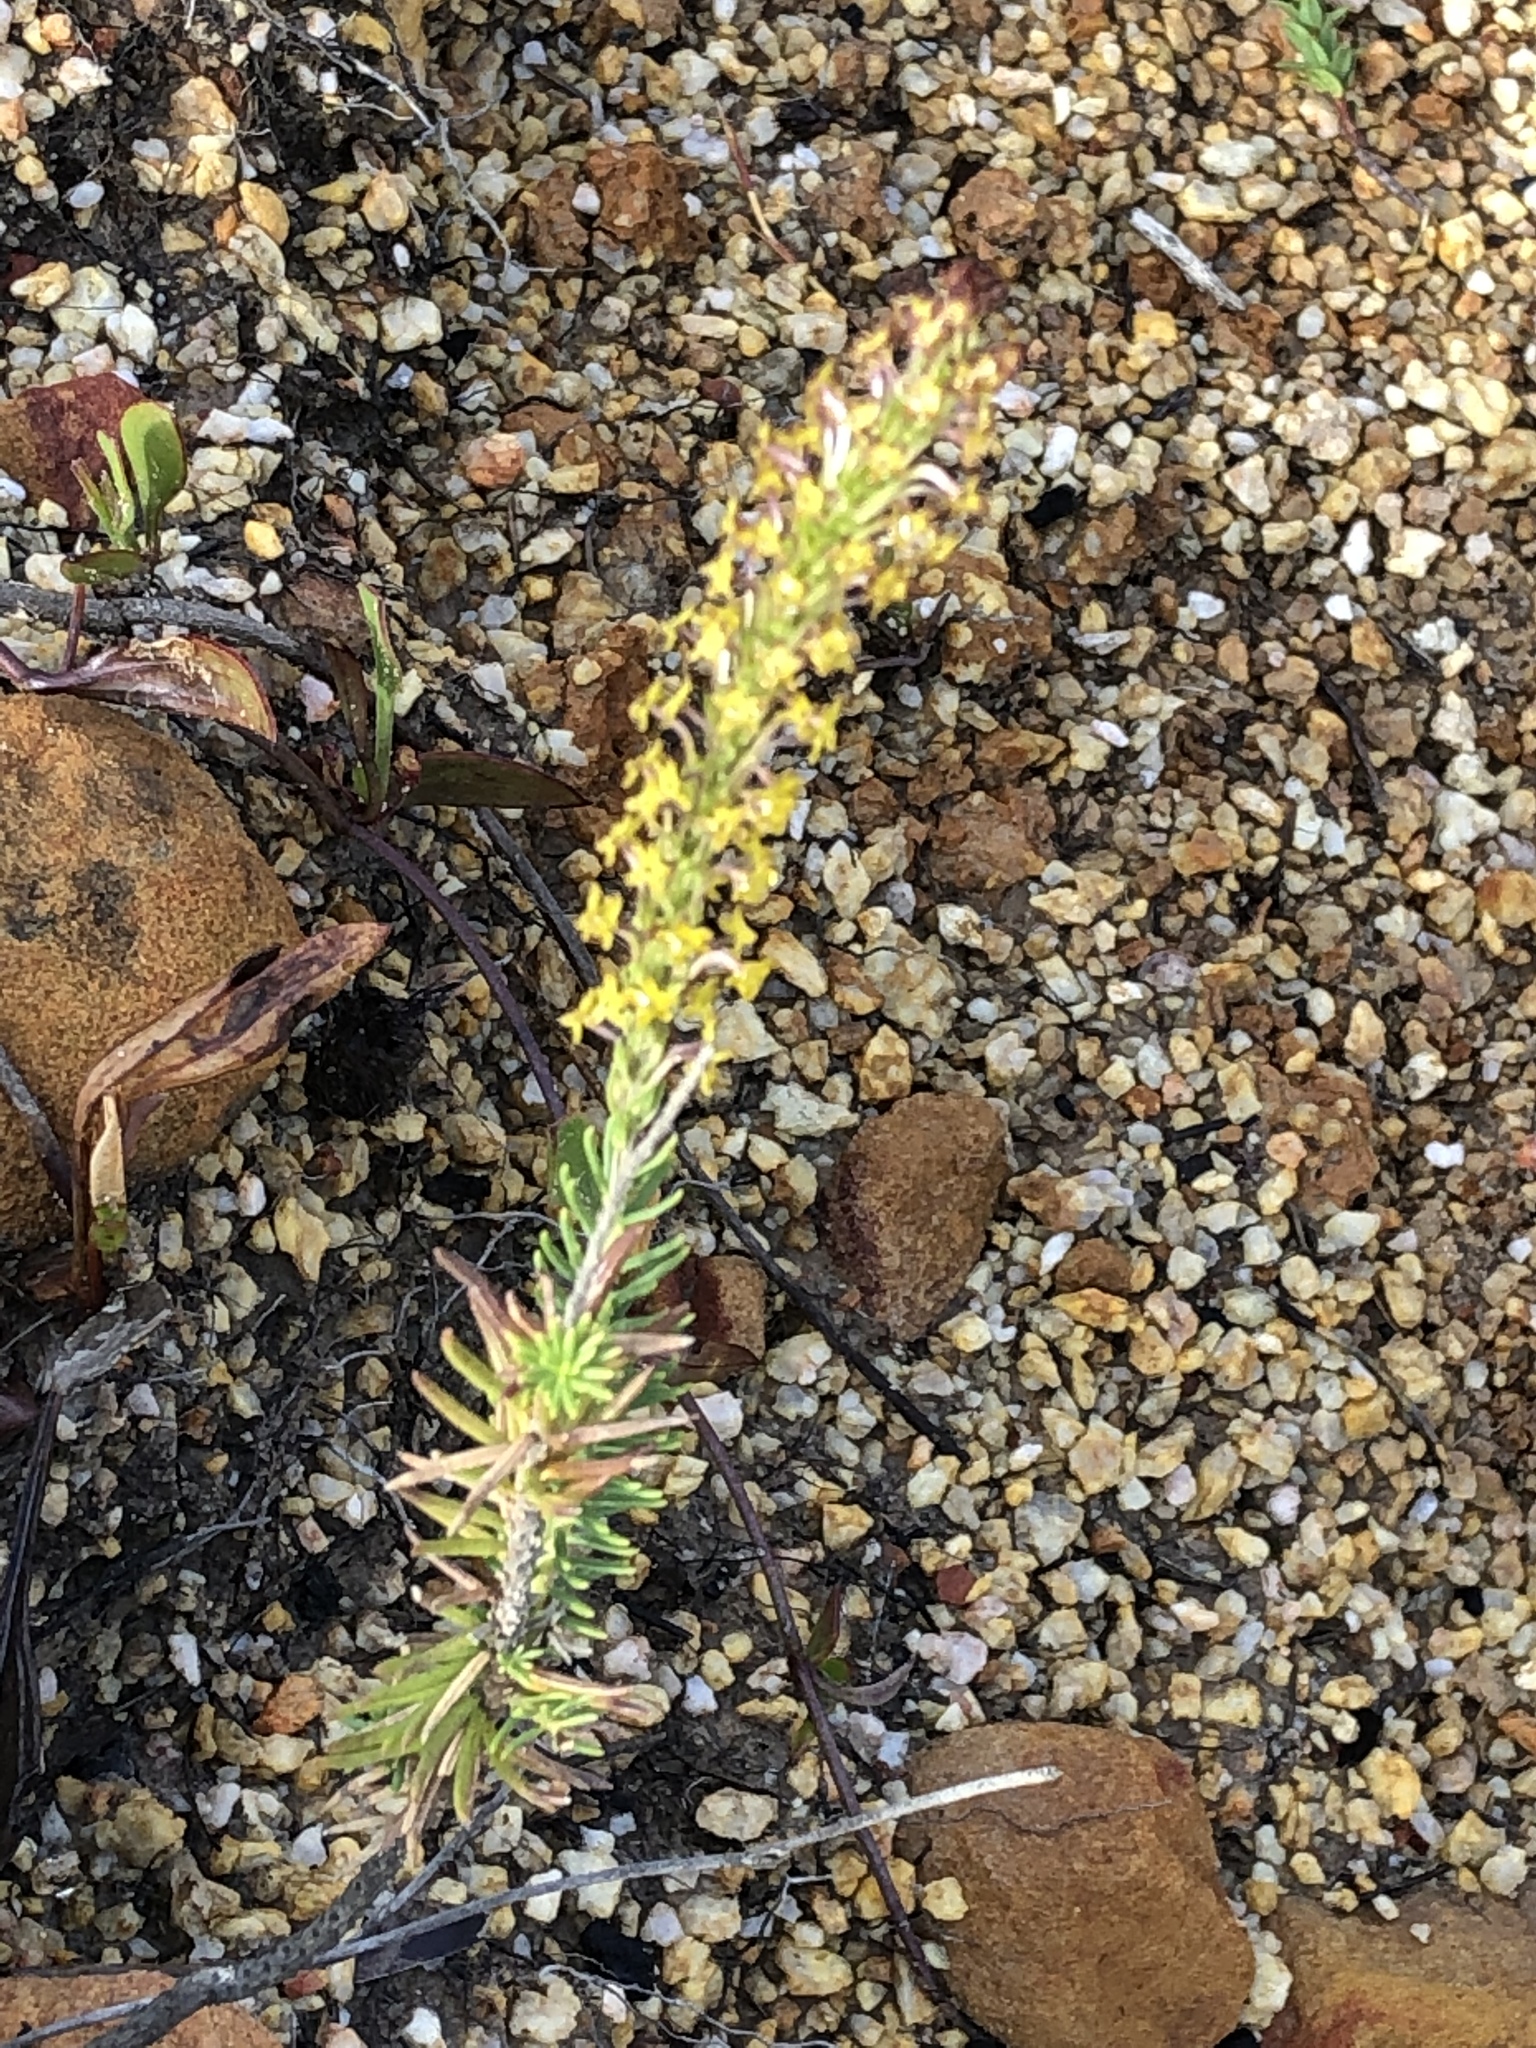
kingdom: Plantae
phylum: Tracheophyta
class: Magnoliopsida
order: Lamiales
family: Scrophulariaceae
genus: Microdon
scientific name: Microdon dubius
